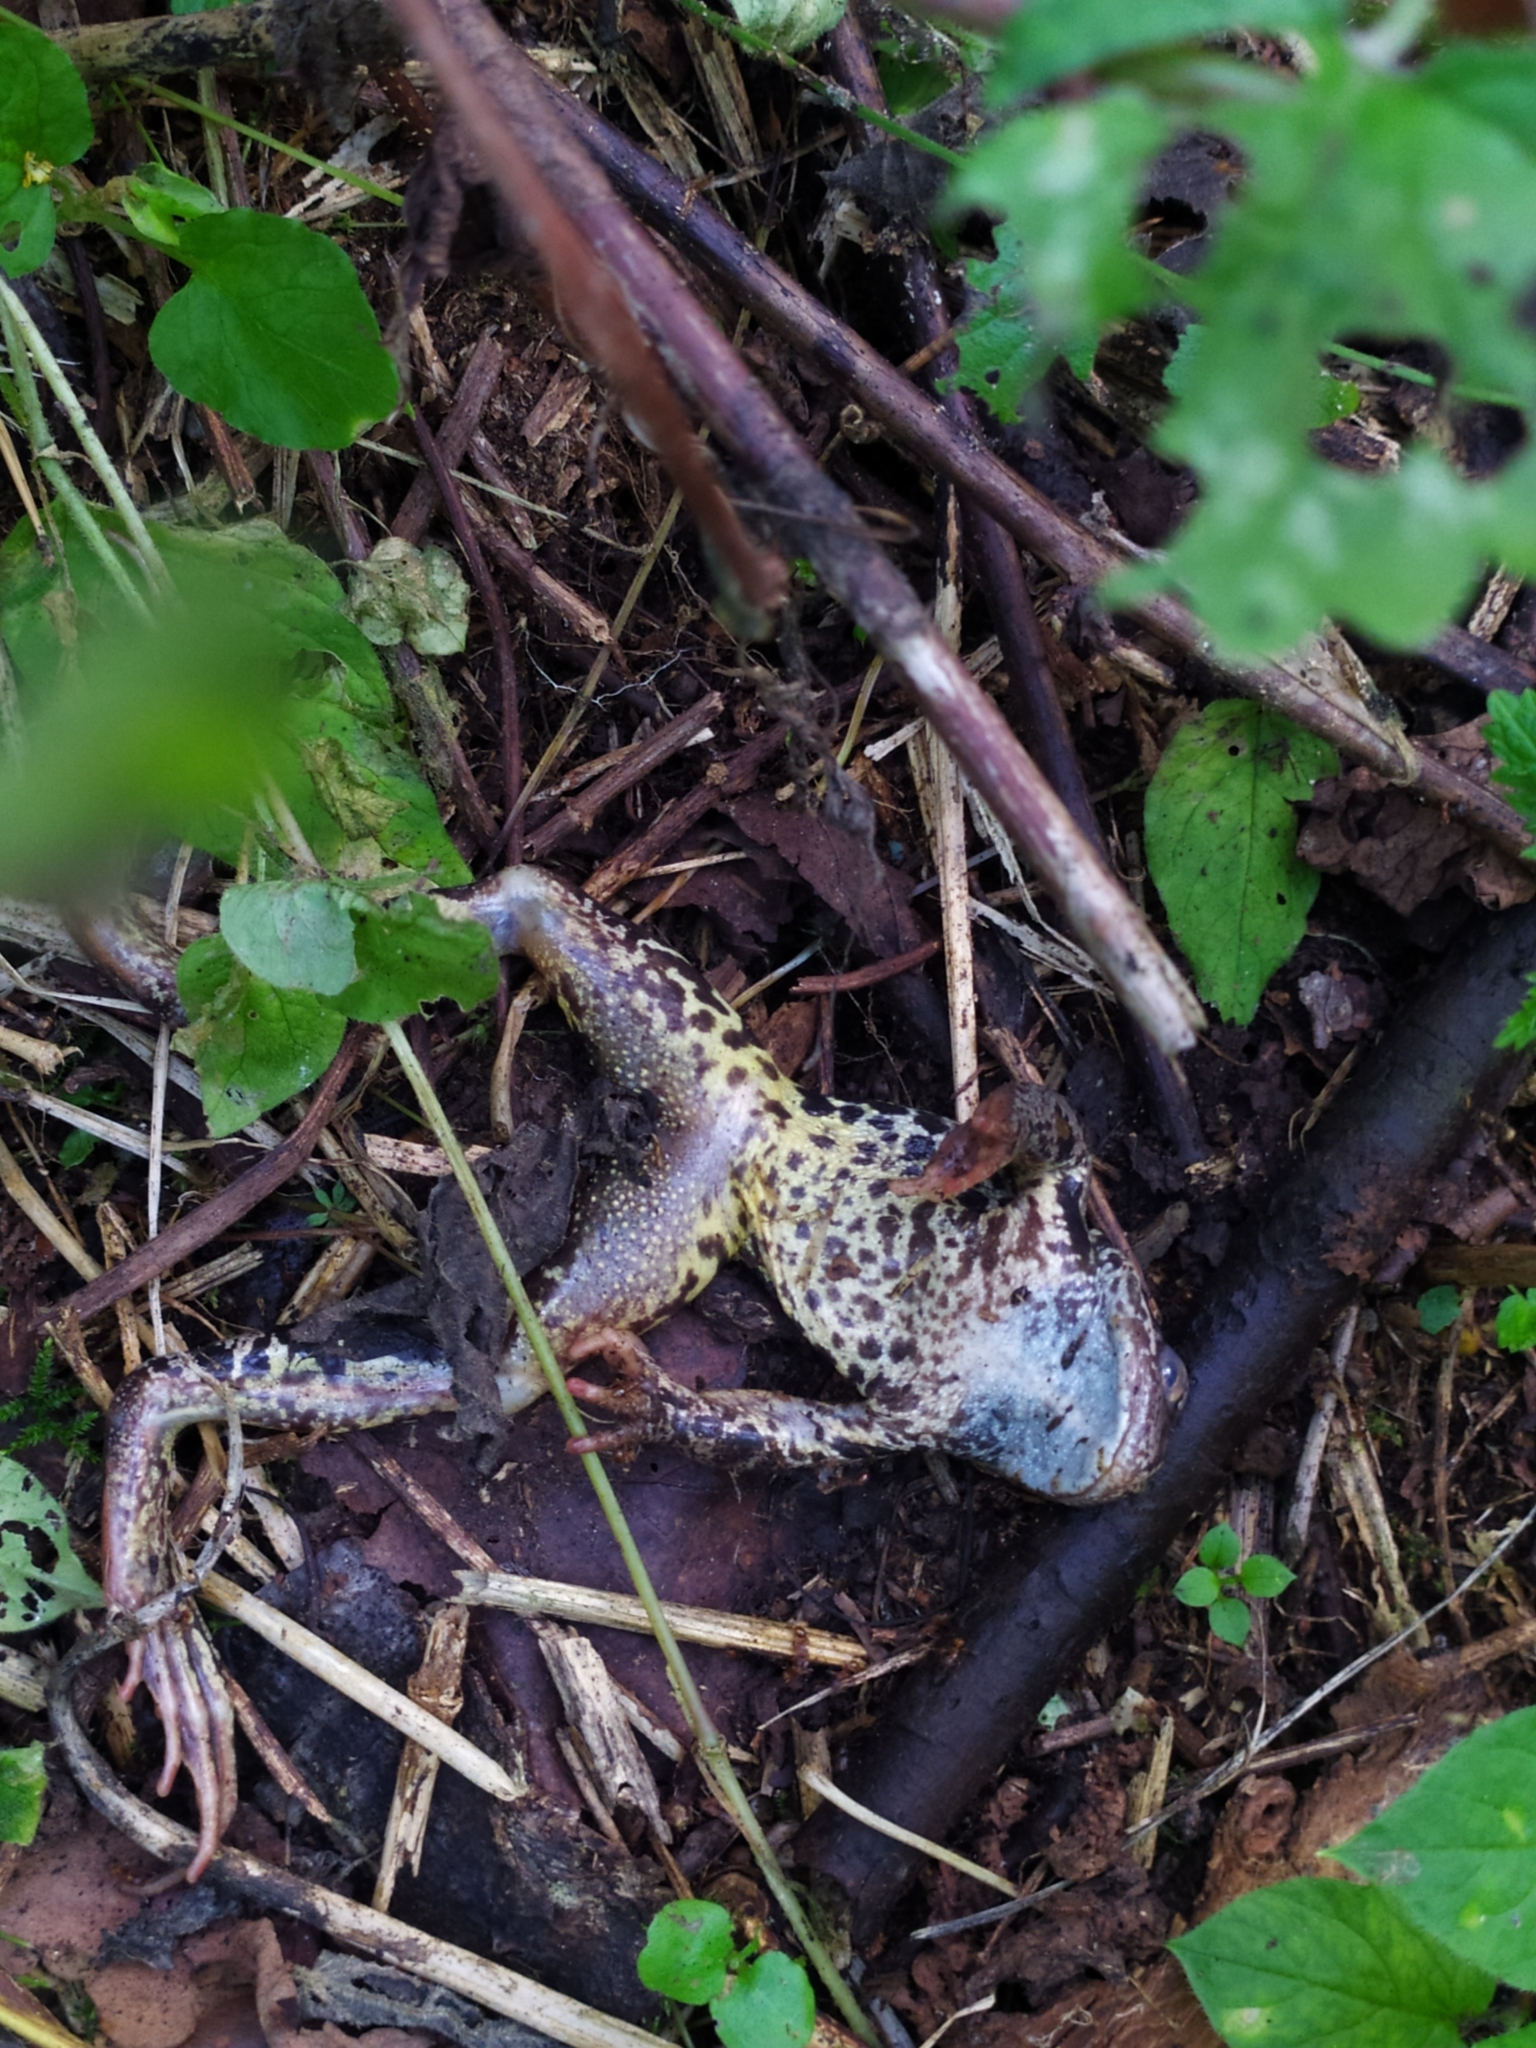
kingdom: Animalia
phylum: Chordata
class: Amphibia
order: Anura
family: Ranidae
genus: Rana
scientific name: Rana temporaria
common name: Common frog
